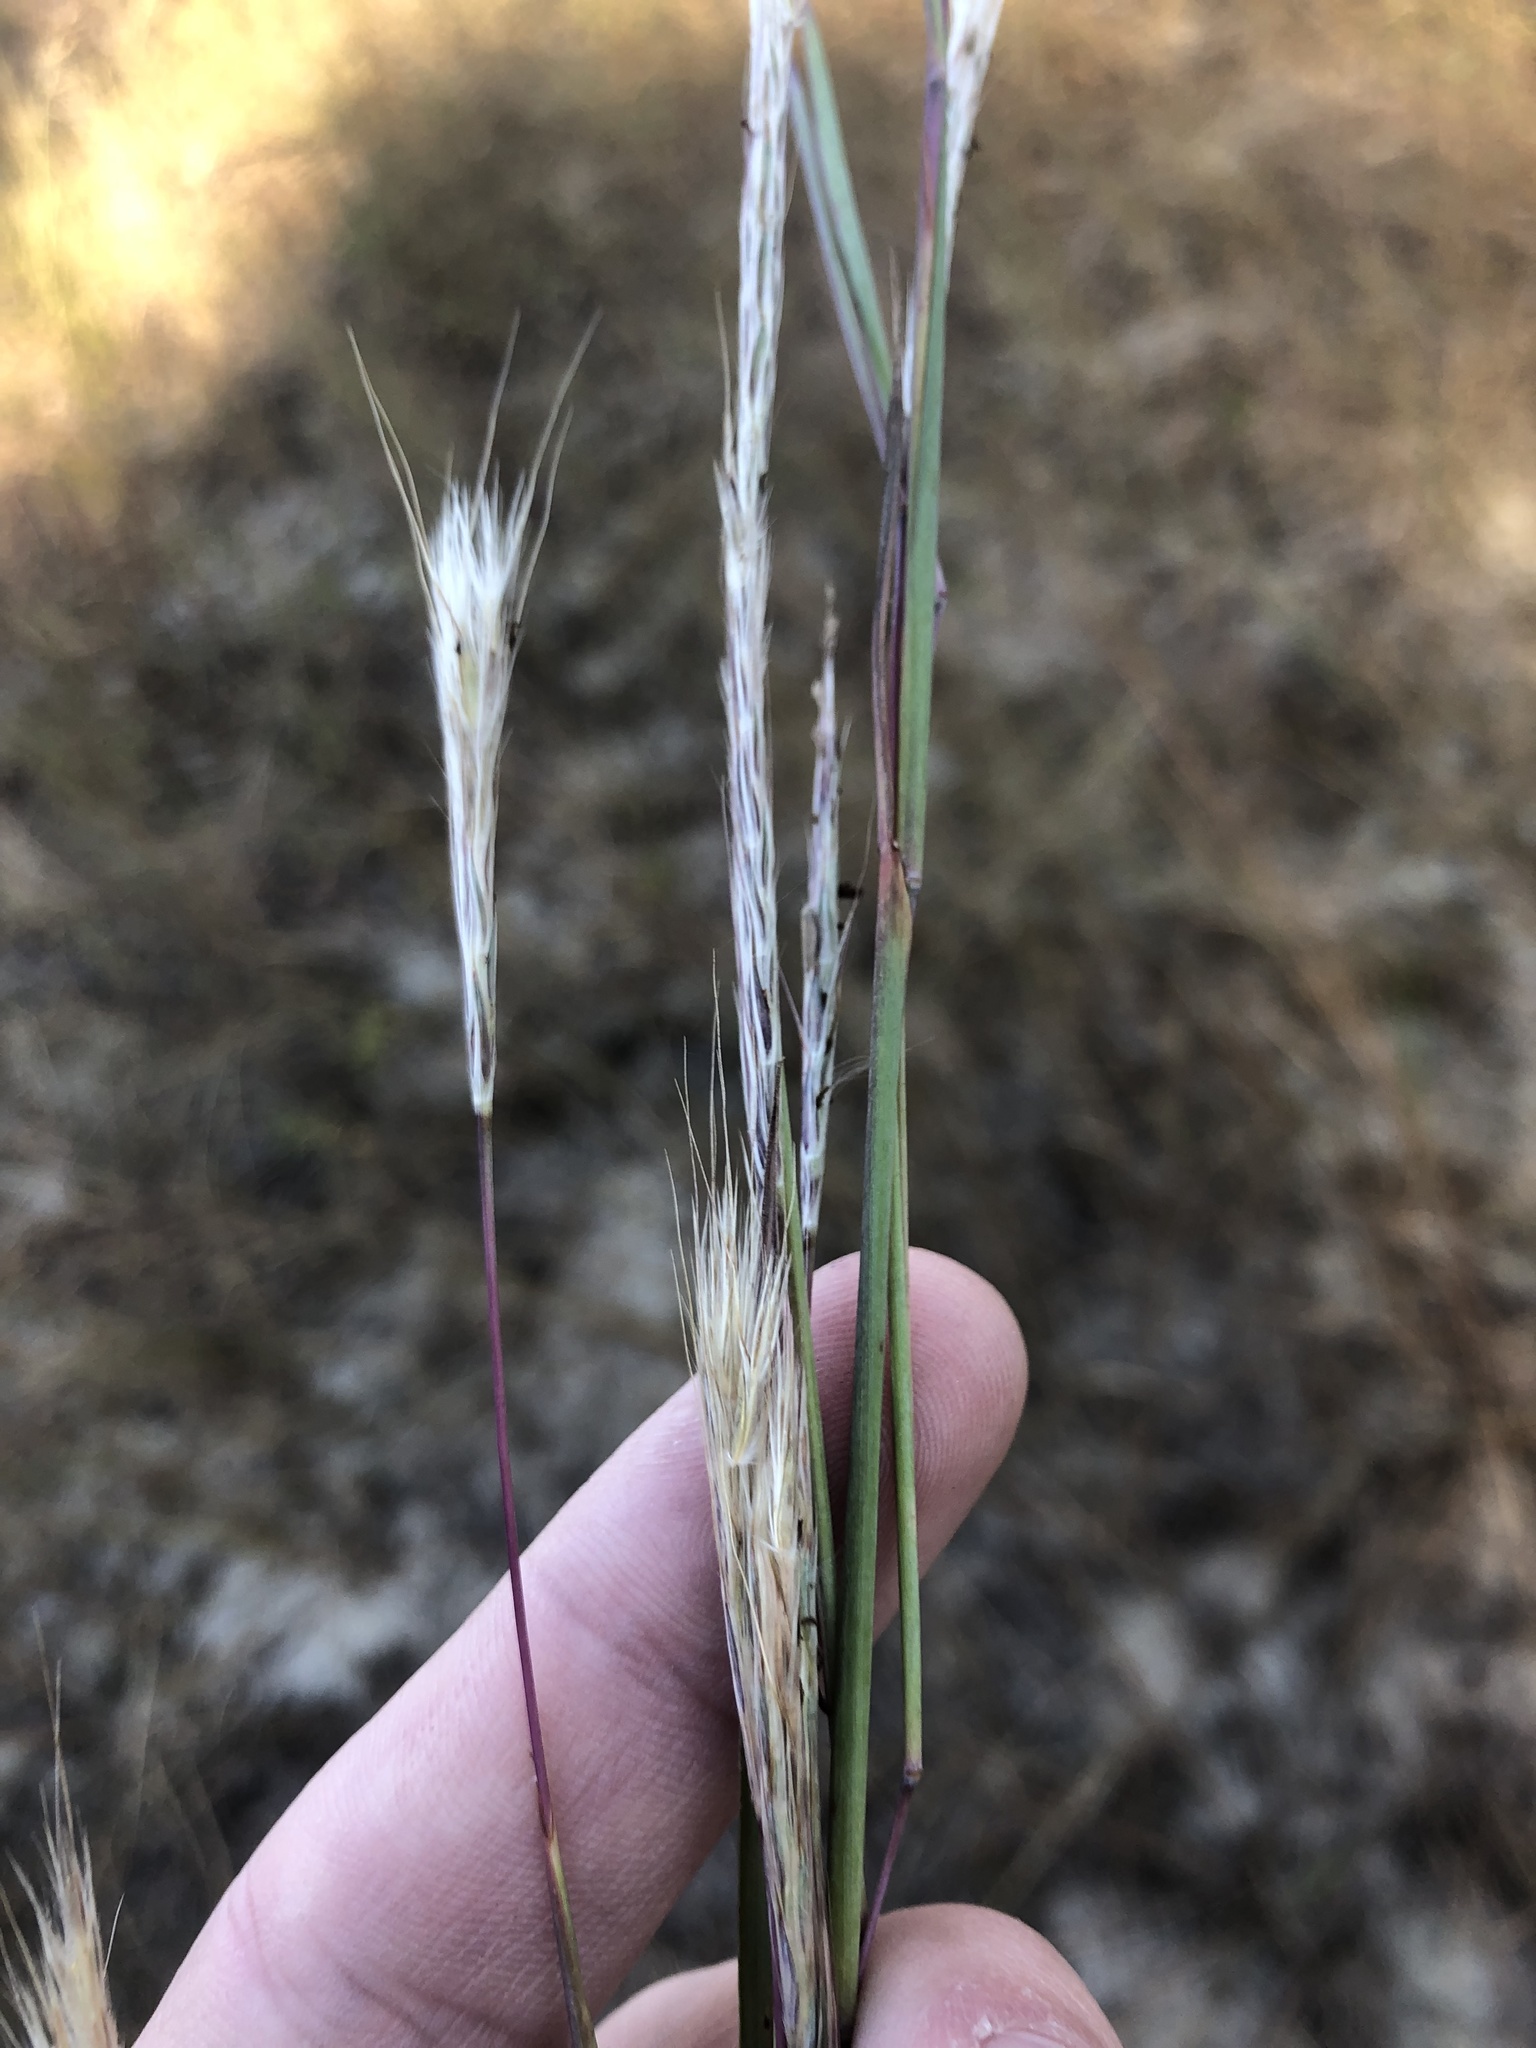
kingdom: Plantae
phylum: Tracheophyta
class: Liliopsida
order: Poales
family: Poaceae
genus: Andropogon
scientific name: Andropogon ternarius
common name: Split bluestem
